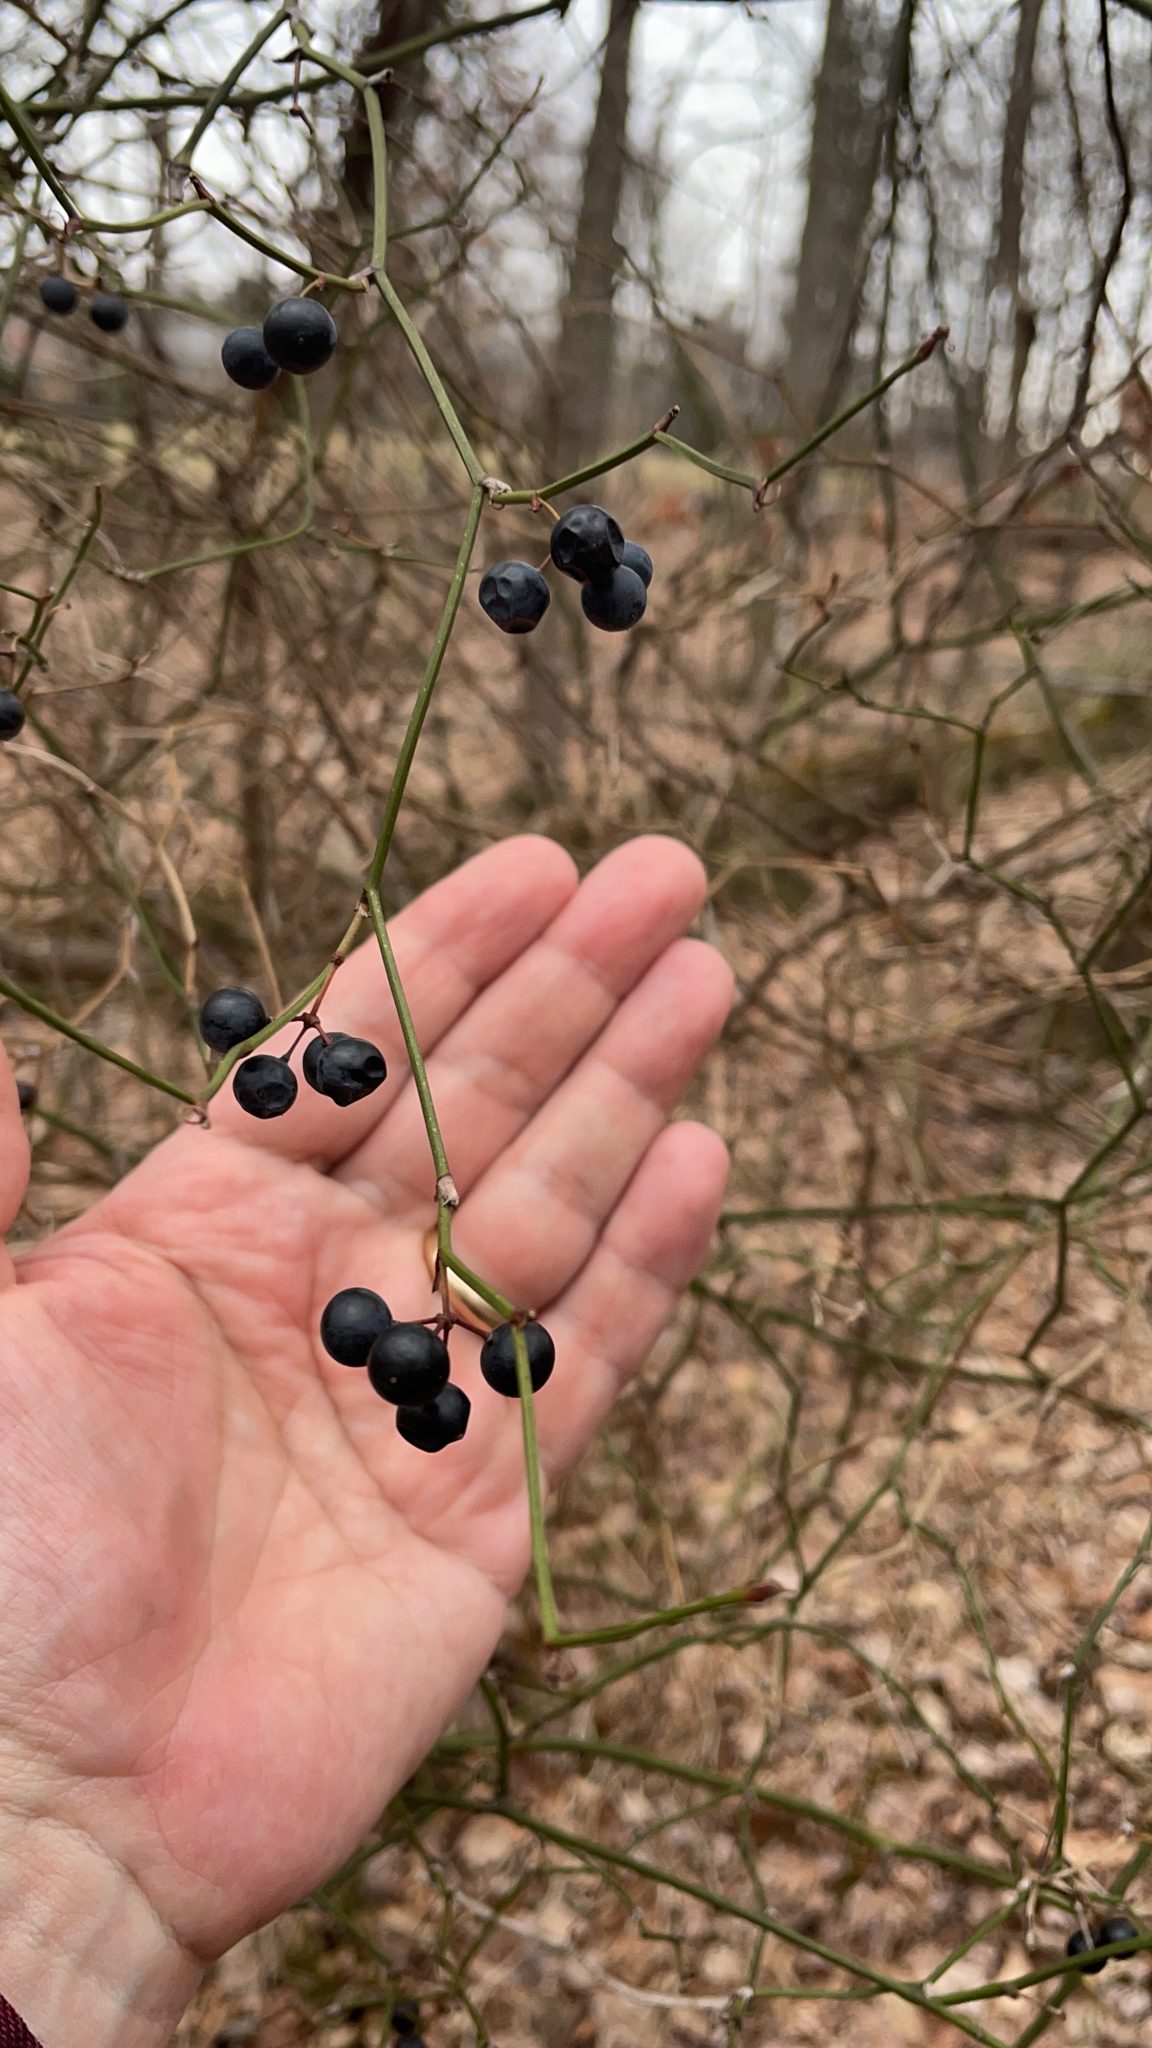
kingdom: Plantae
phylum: Tracheophyta
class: Liliopsida
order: Liliales
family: Smilacaceae
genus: Smilax
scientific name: Smilax rotundifolia
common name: Bullbriar
